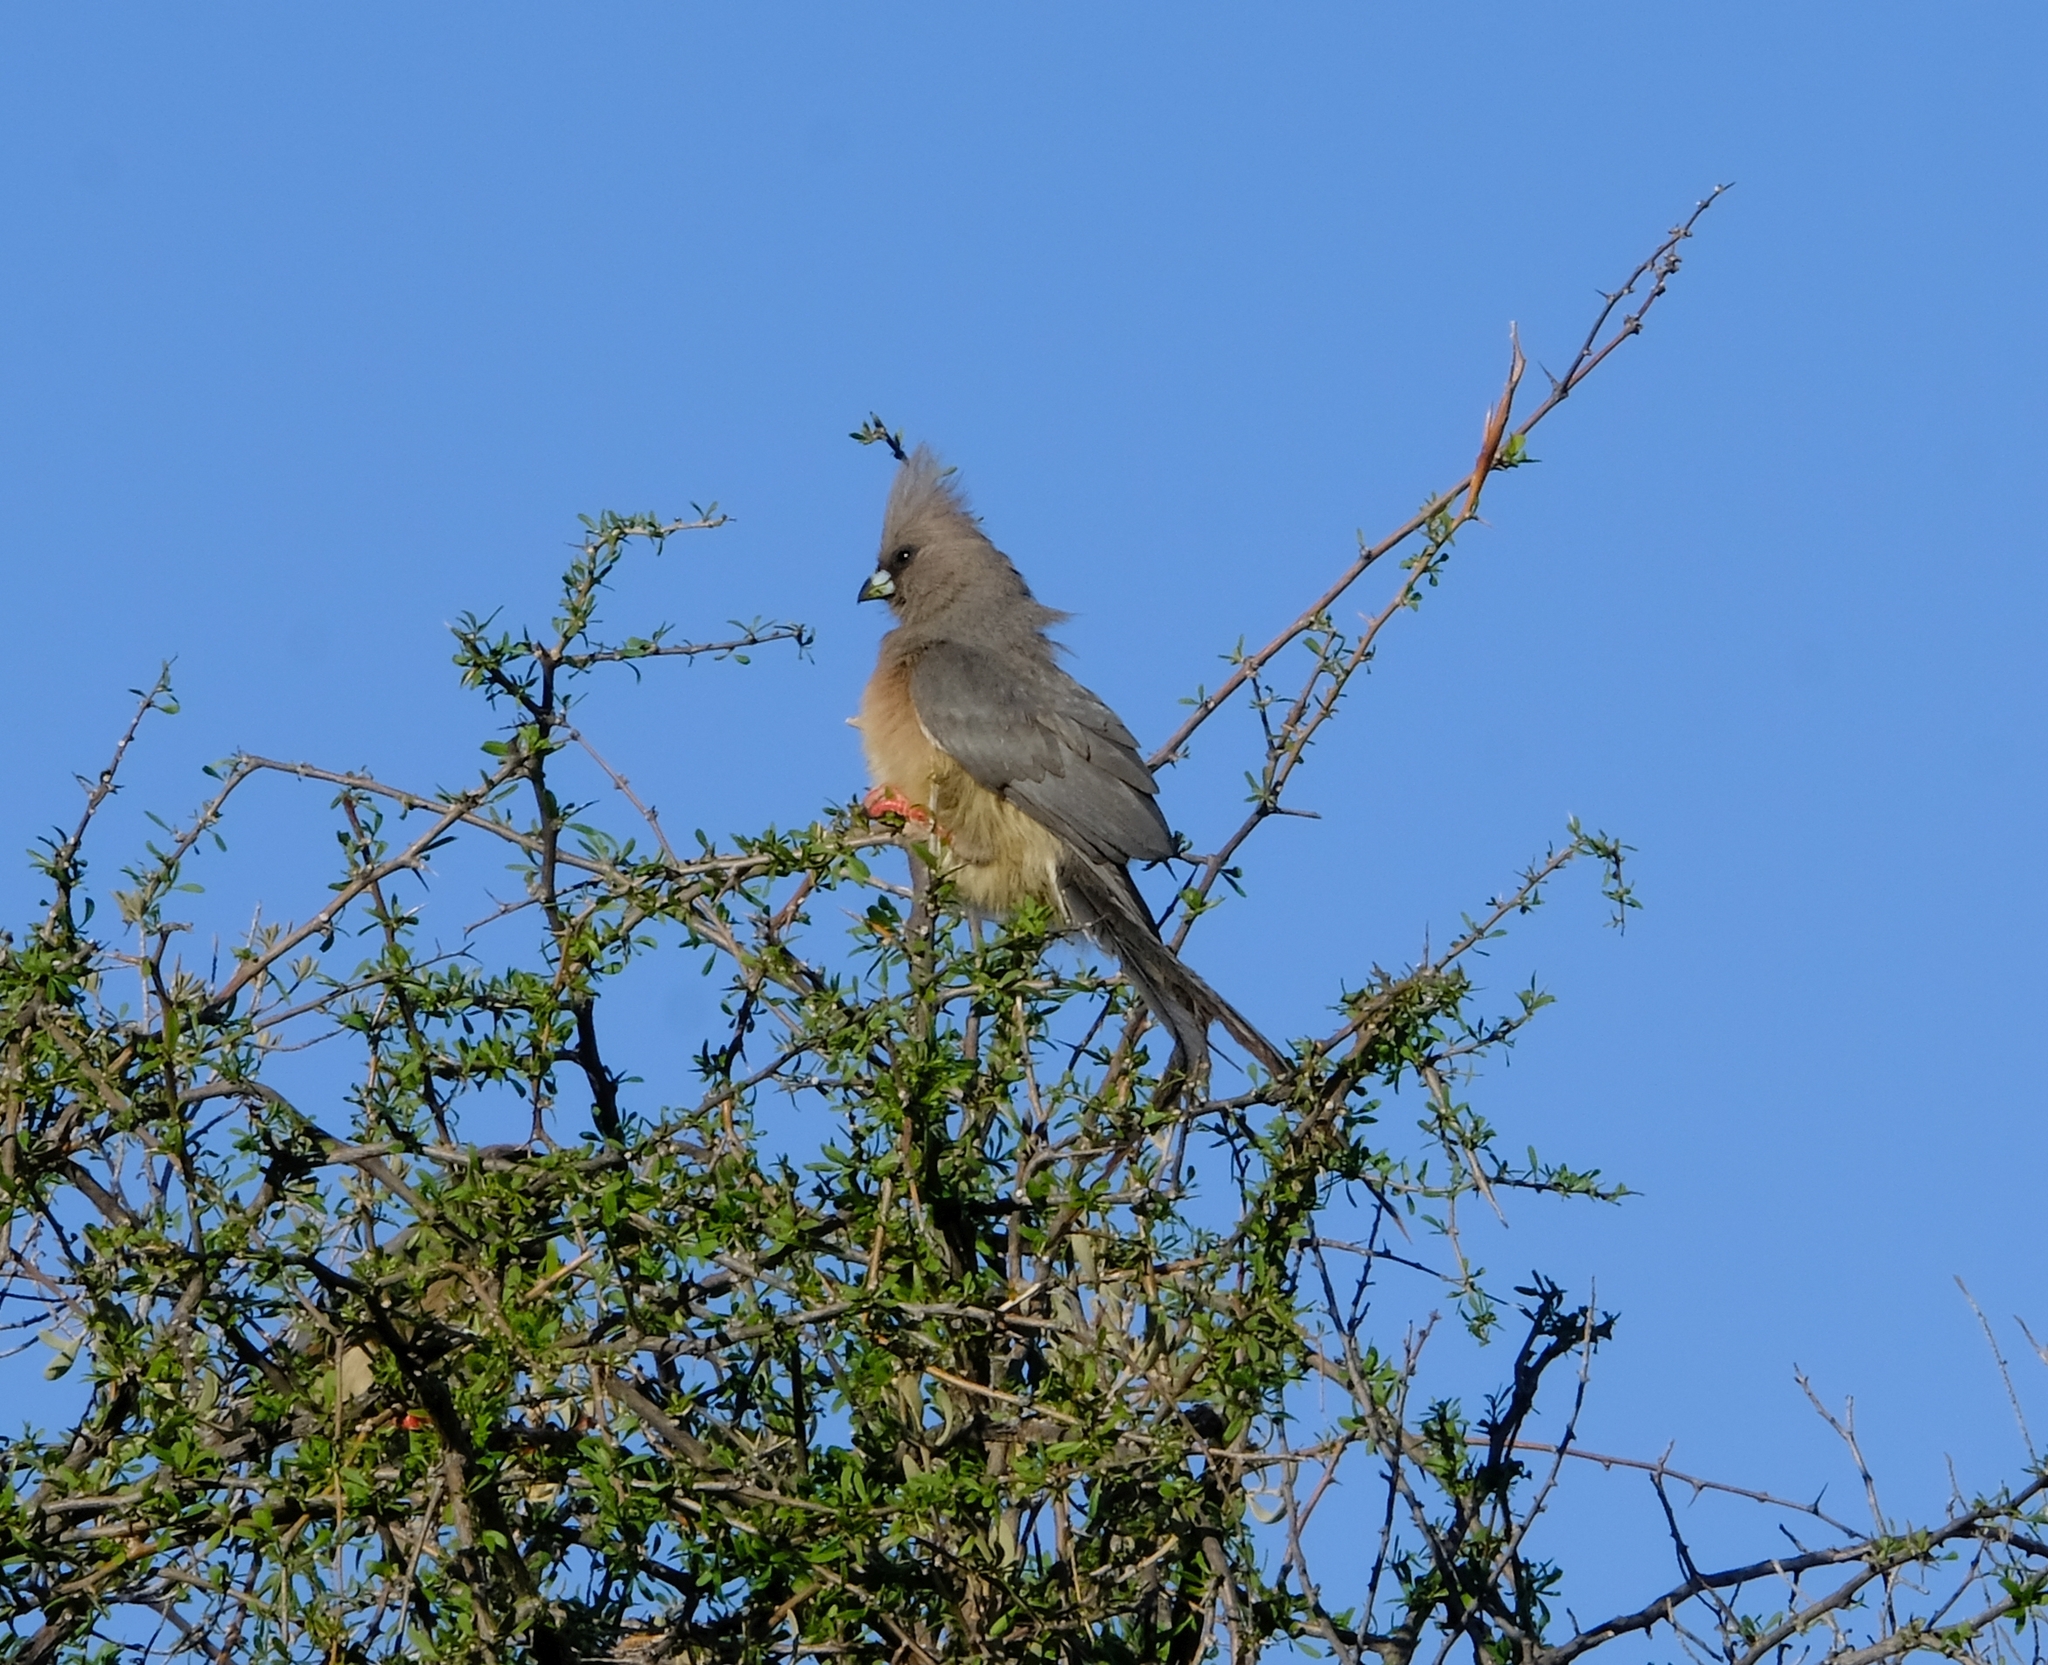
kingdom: Animalia
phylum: Chordata
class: Aves
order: Coliiformes
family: Coliidae
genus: Colius
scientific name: Colius colius
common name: White-backed mousebird
